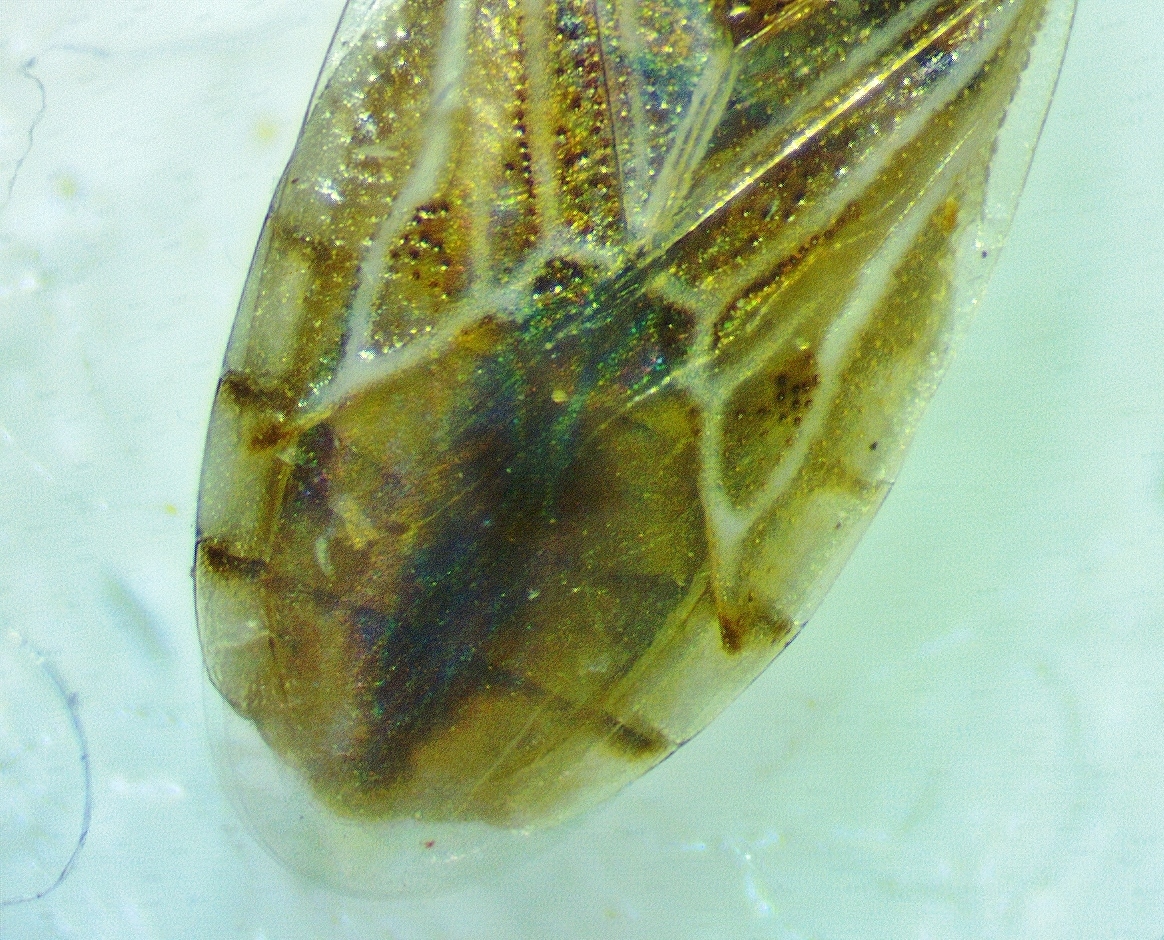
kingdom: Animalia
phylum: Arthropoda
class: Insecta
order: Hemiptera
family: Artheneidae
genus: Holcocranum
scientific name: Holcocranum saturejae
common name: Cattail bug
